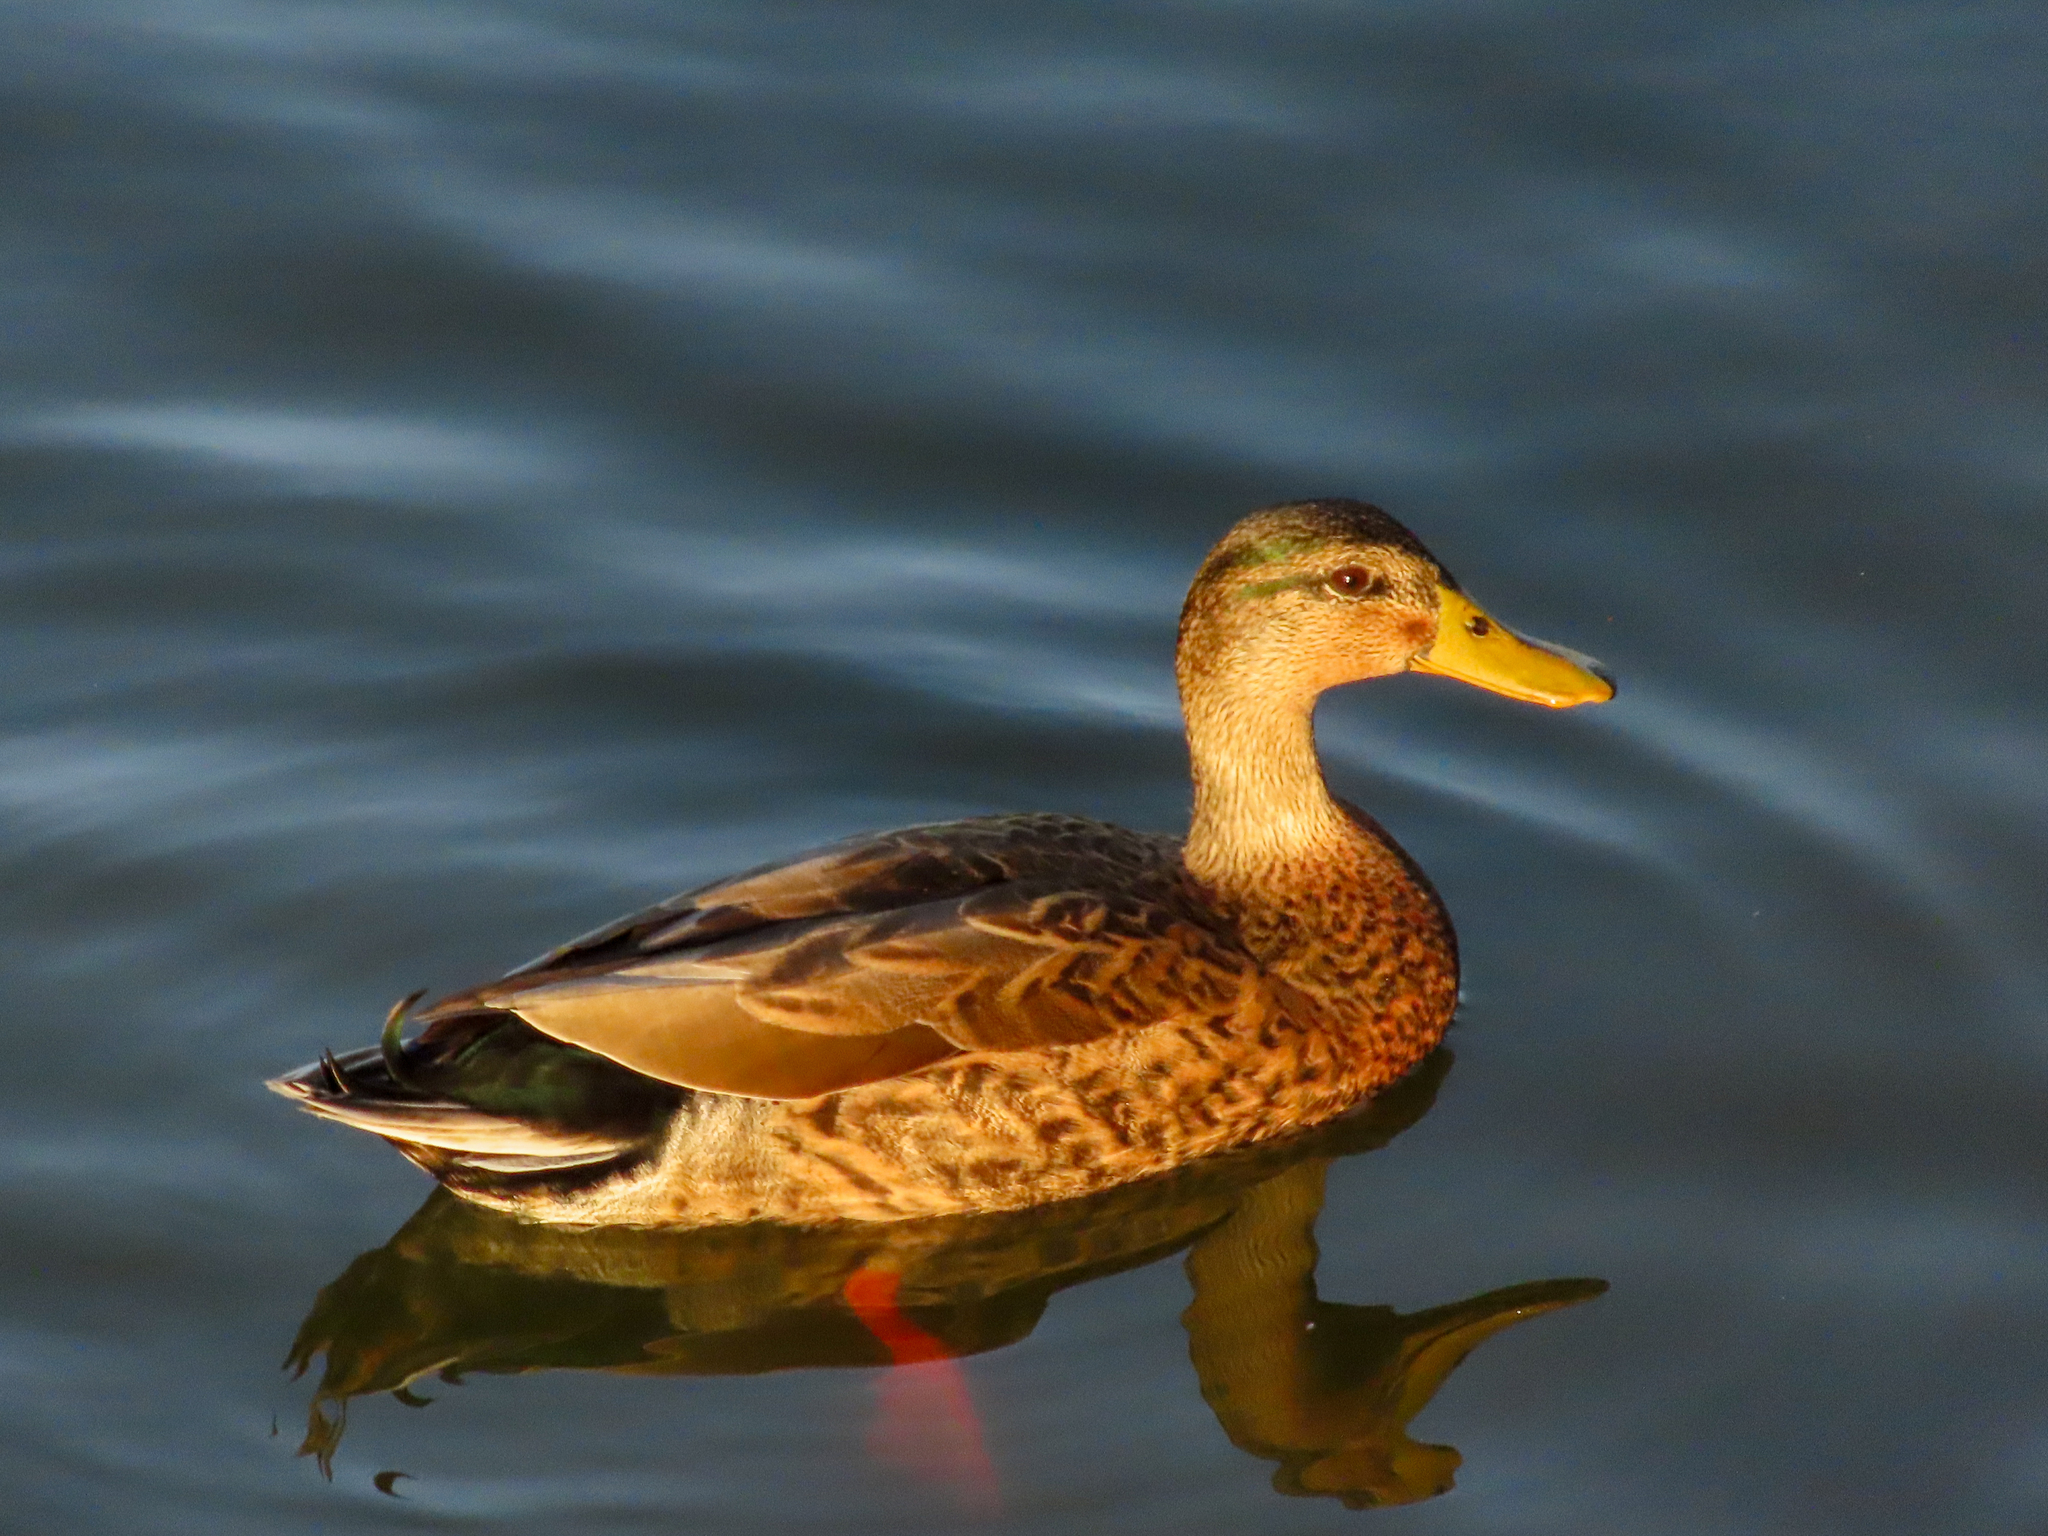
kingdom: Animalia
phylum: Chordata
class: Aves
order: Anseriformes
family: Anatidae
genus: Anas
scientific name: Anas
